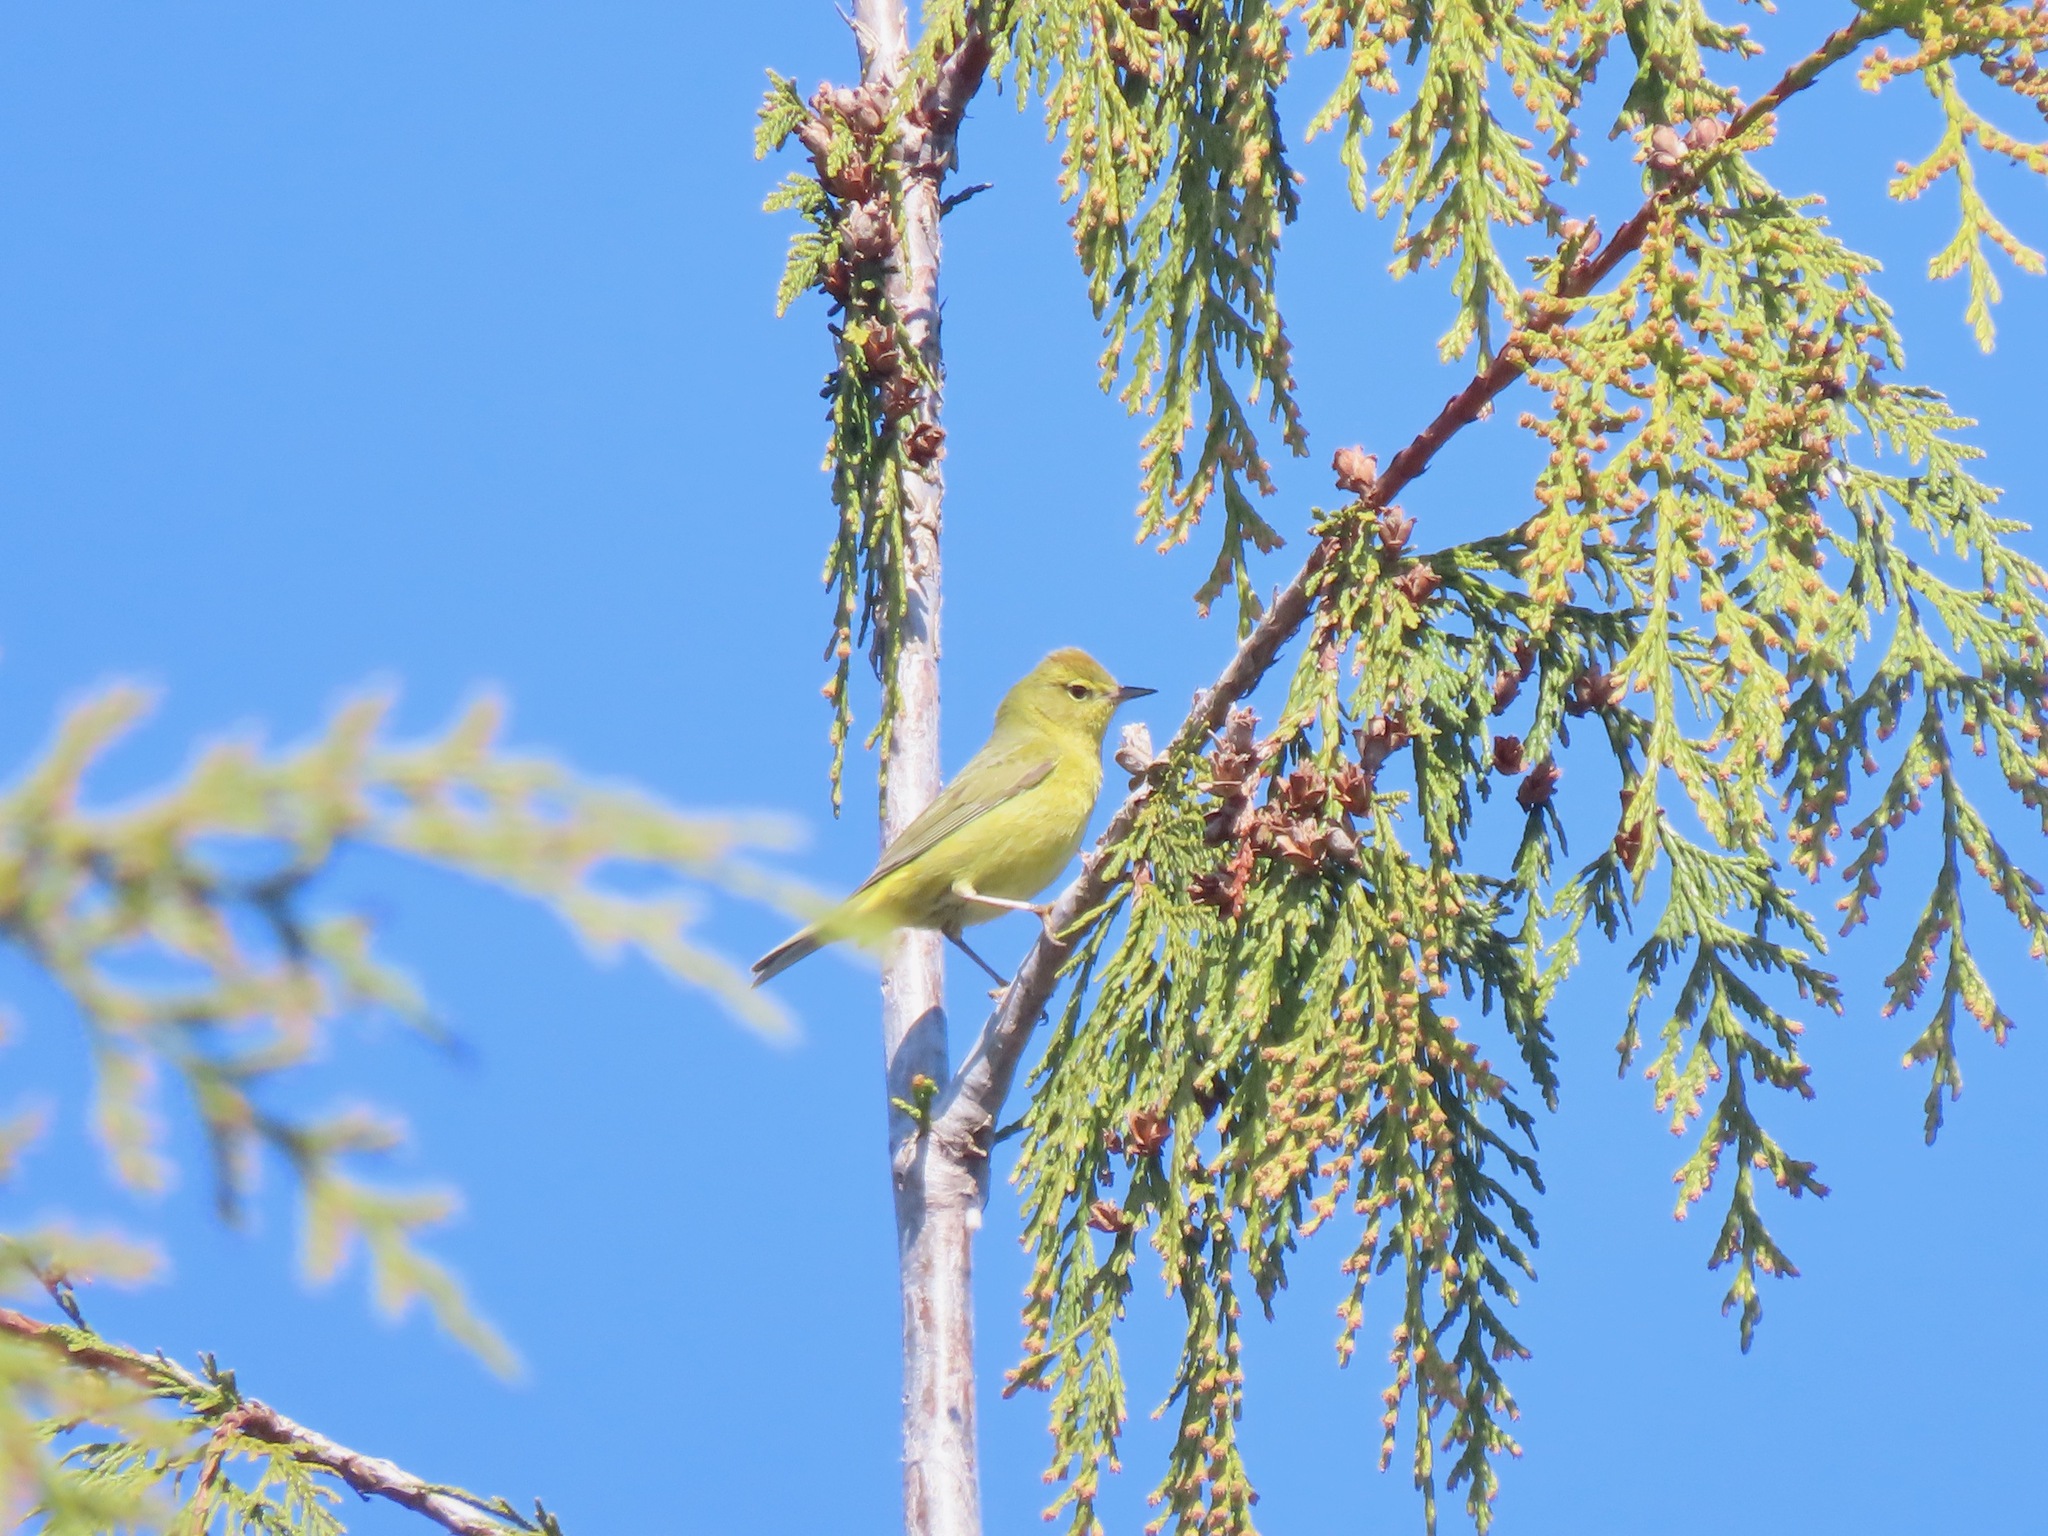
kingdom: Animalia
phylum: Chordata
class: Aves
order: Passeriformes
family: Parulidae
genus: Leiothlypis
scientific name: Leiothlypis celata
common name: Orange-crowned warbler
